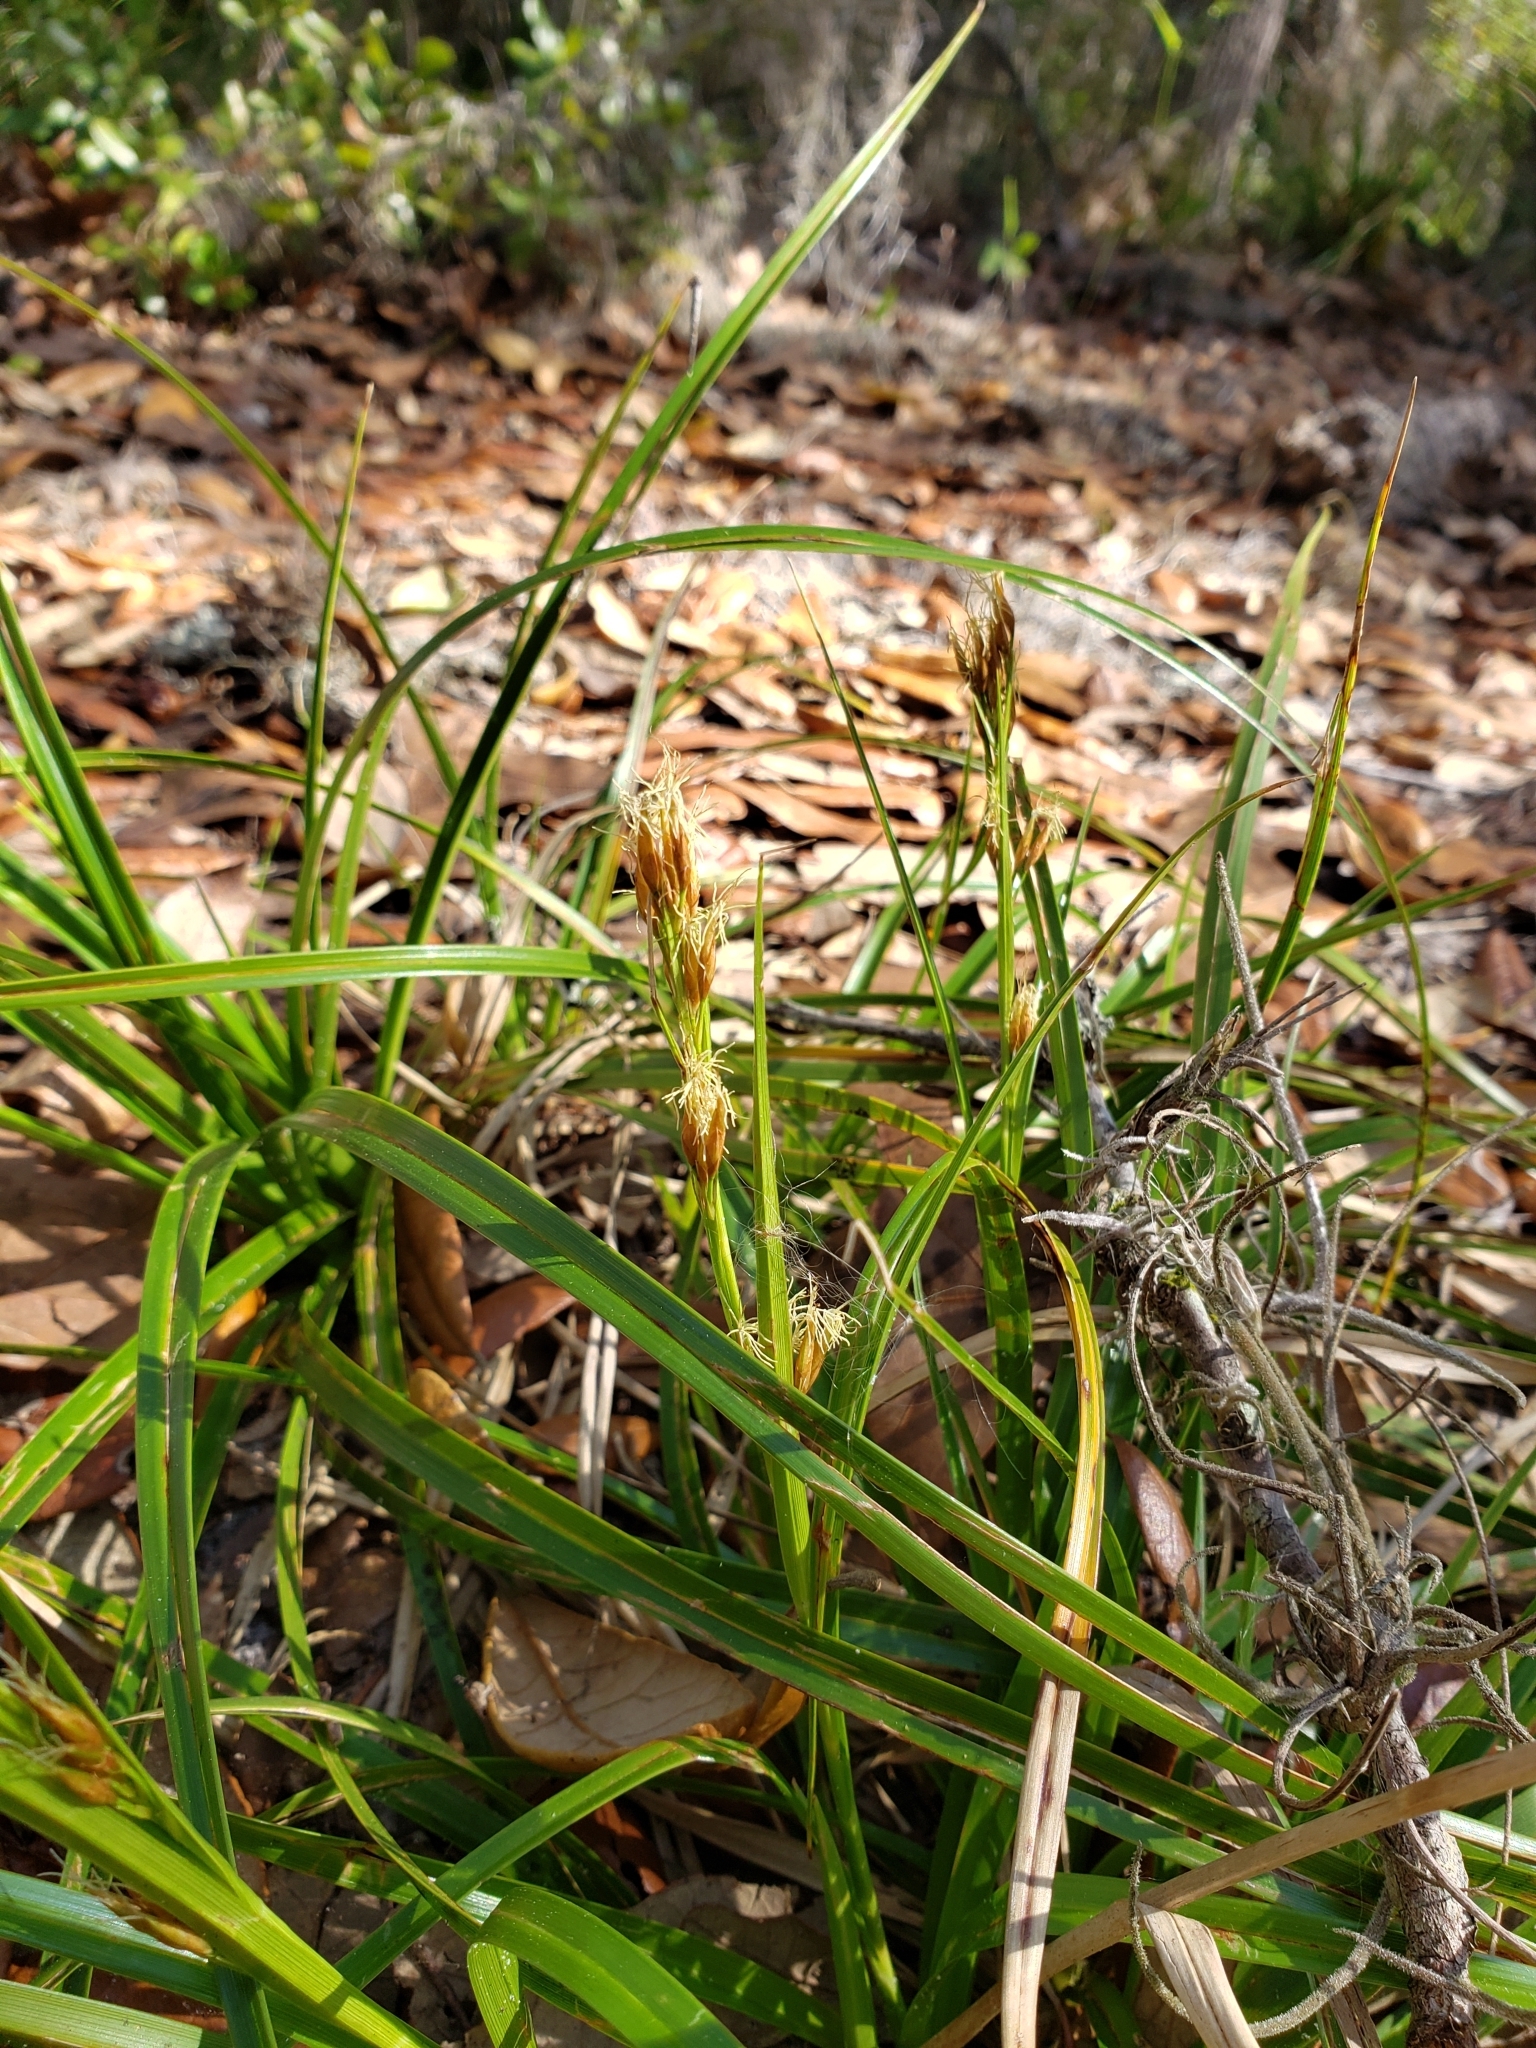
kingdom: Plantae
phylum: Tracheophyta
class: Liliopsida
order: Poales
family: Cyperaceae
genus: Rhynchospora
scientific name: Rhynchospora megalocarpa
